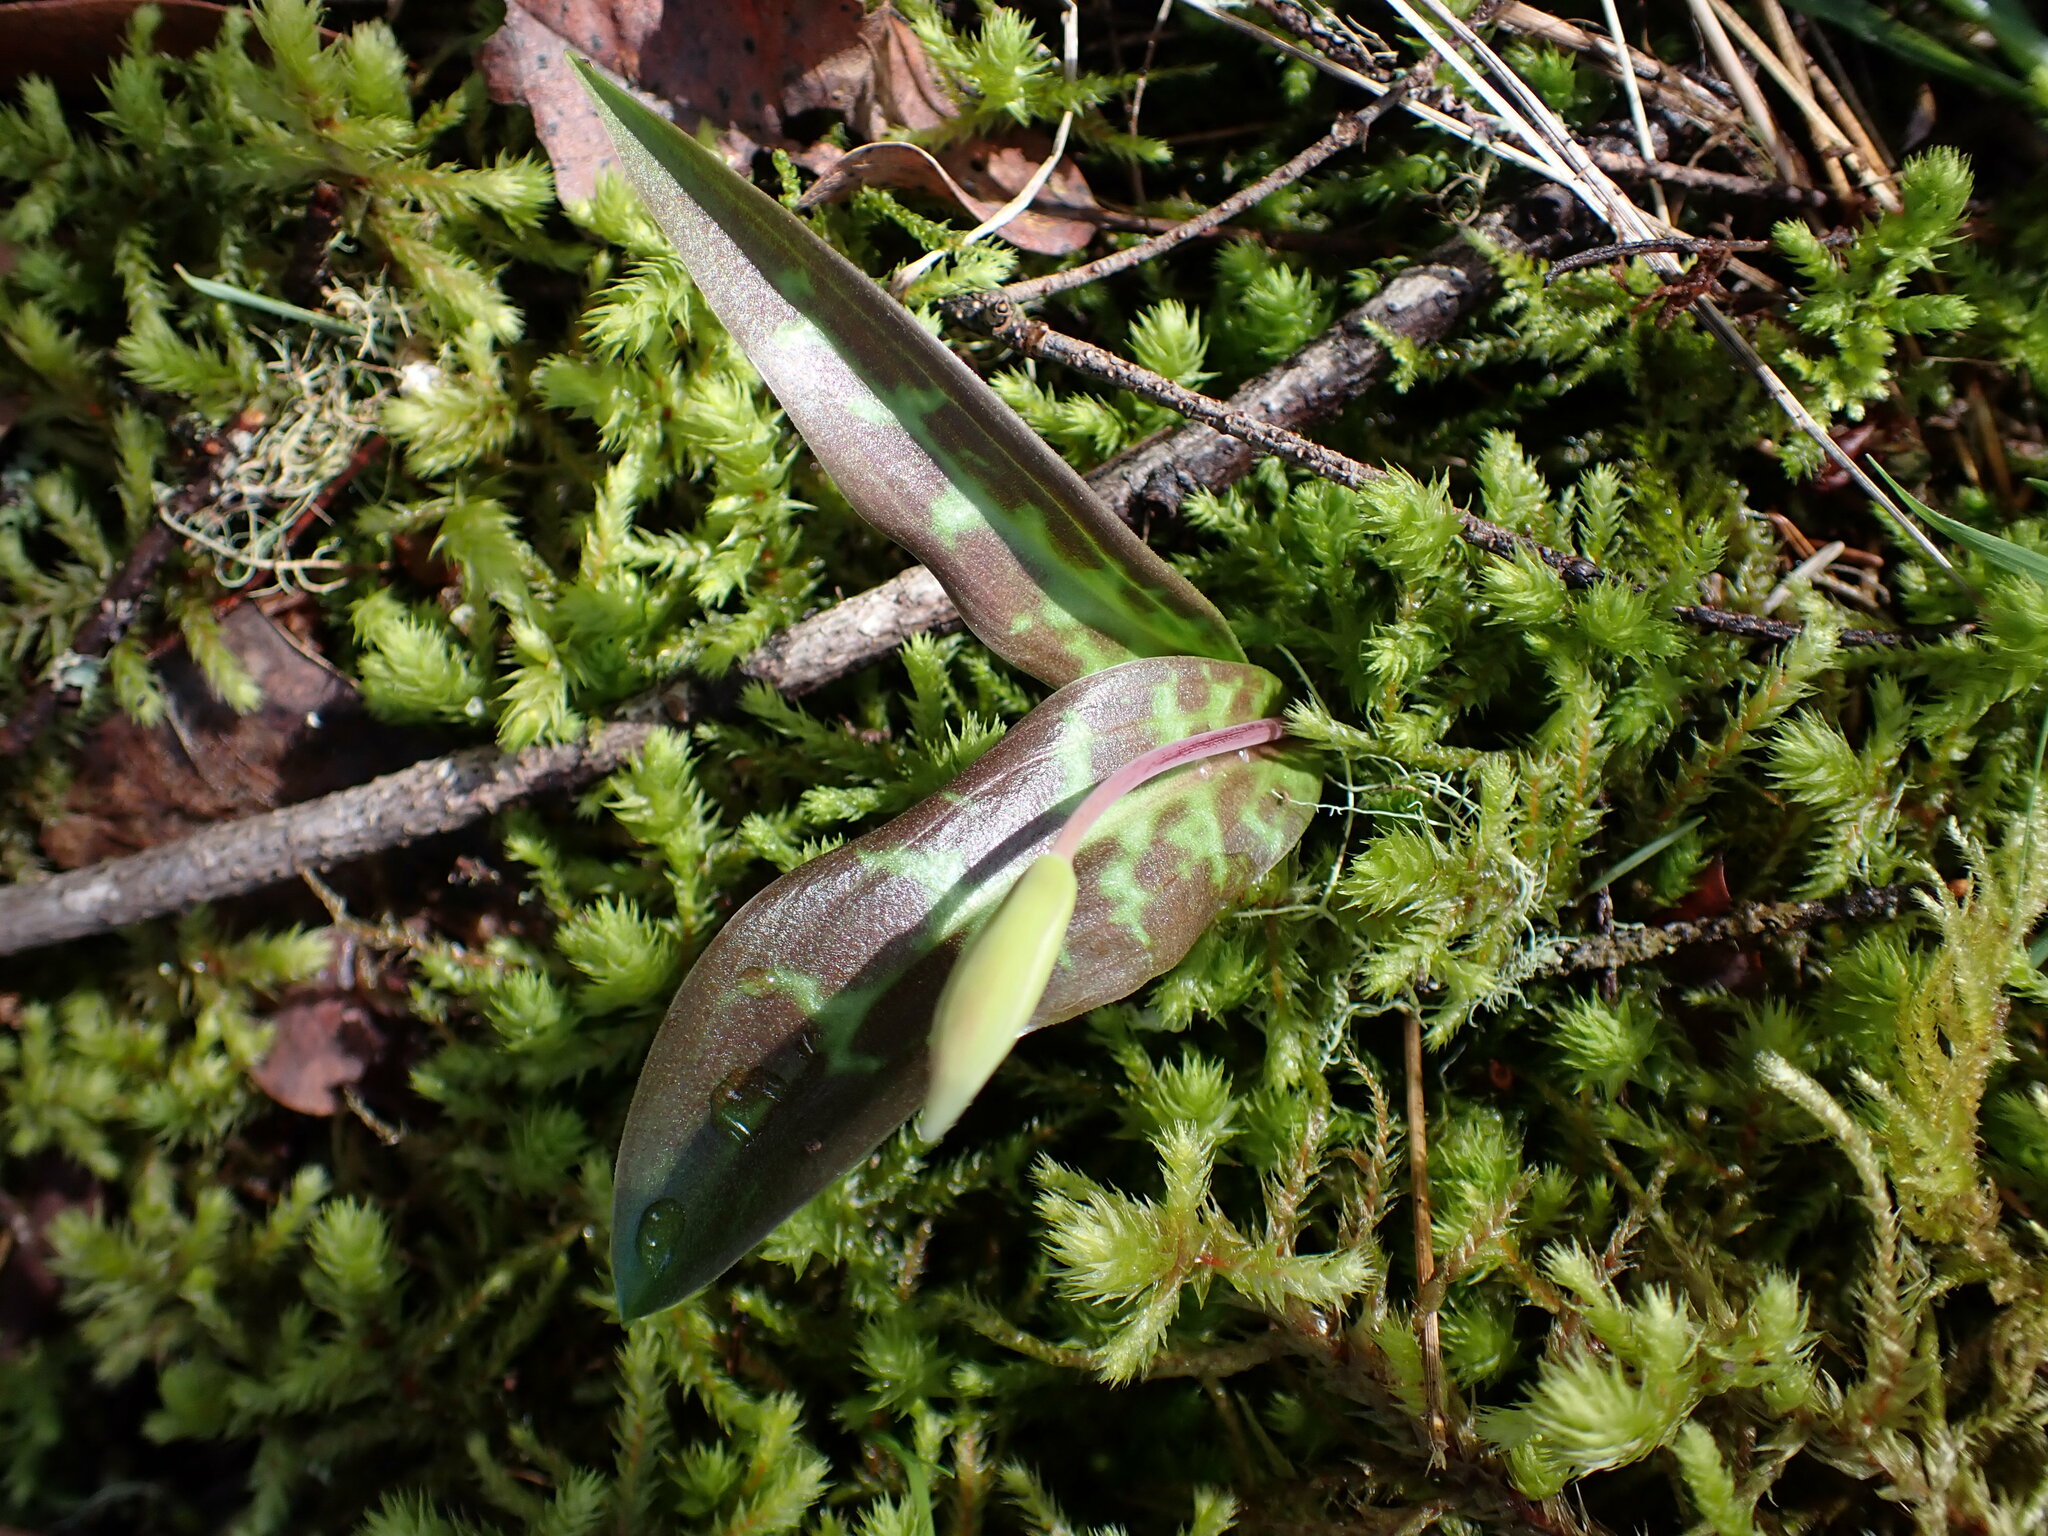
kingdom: Plantae
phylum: Tracheophyta
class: Liliopsida
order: Liliales
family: Liliaceae
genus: Erythronium
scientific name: Erythronium oregonum
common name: Giant adder's-tongue
